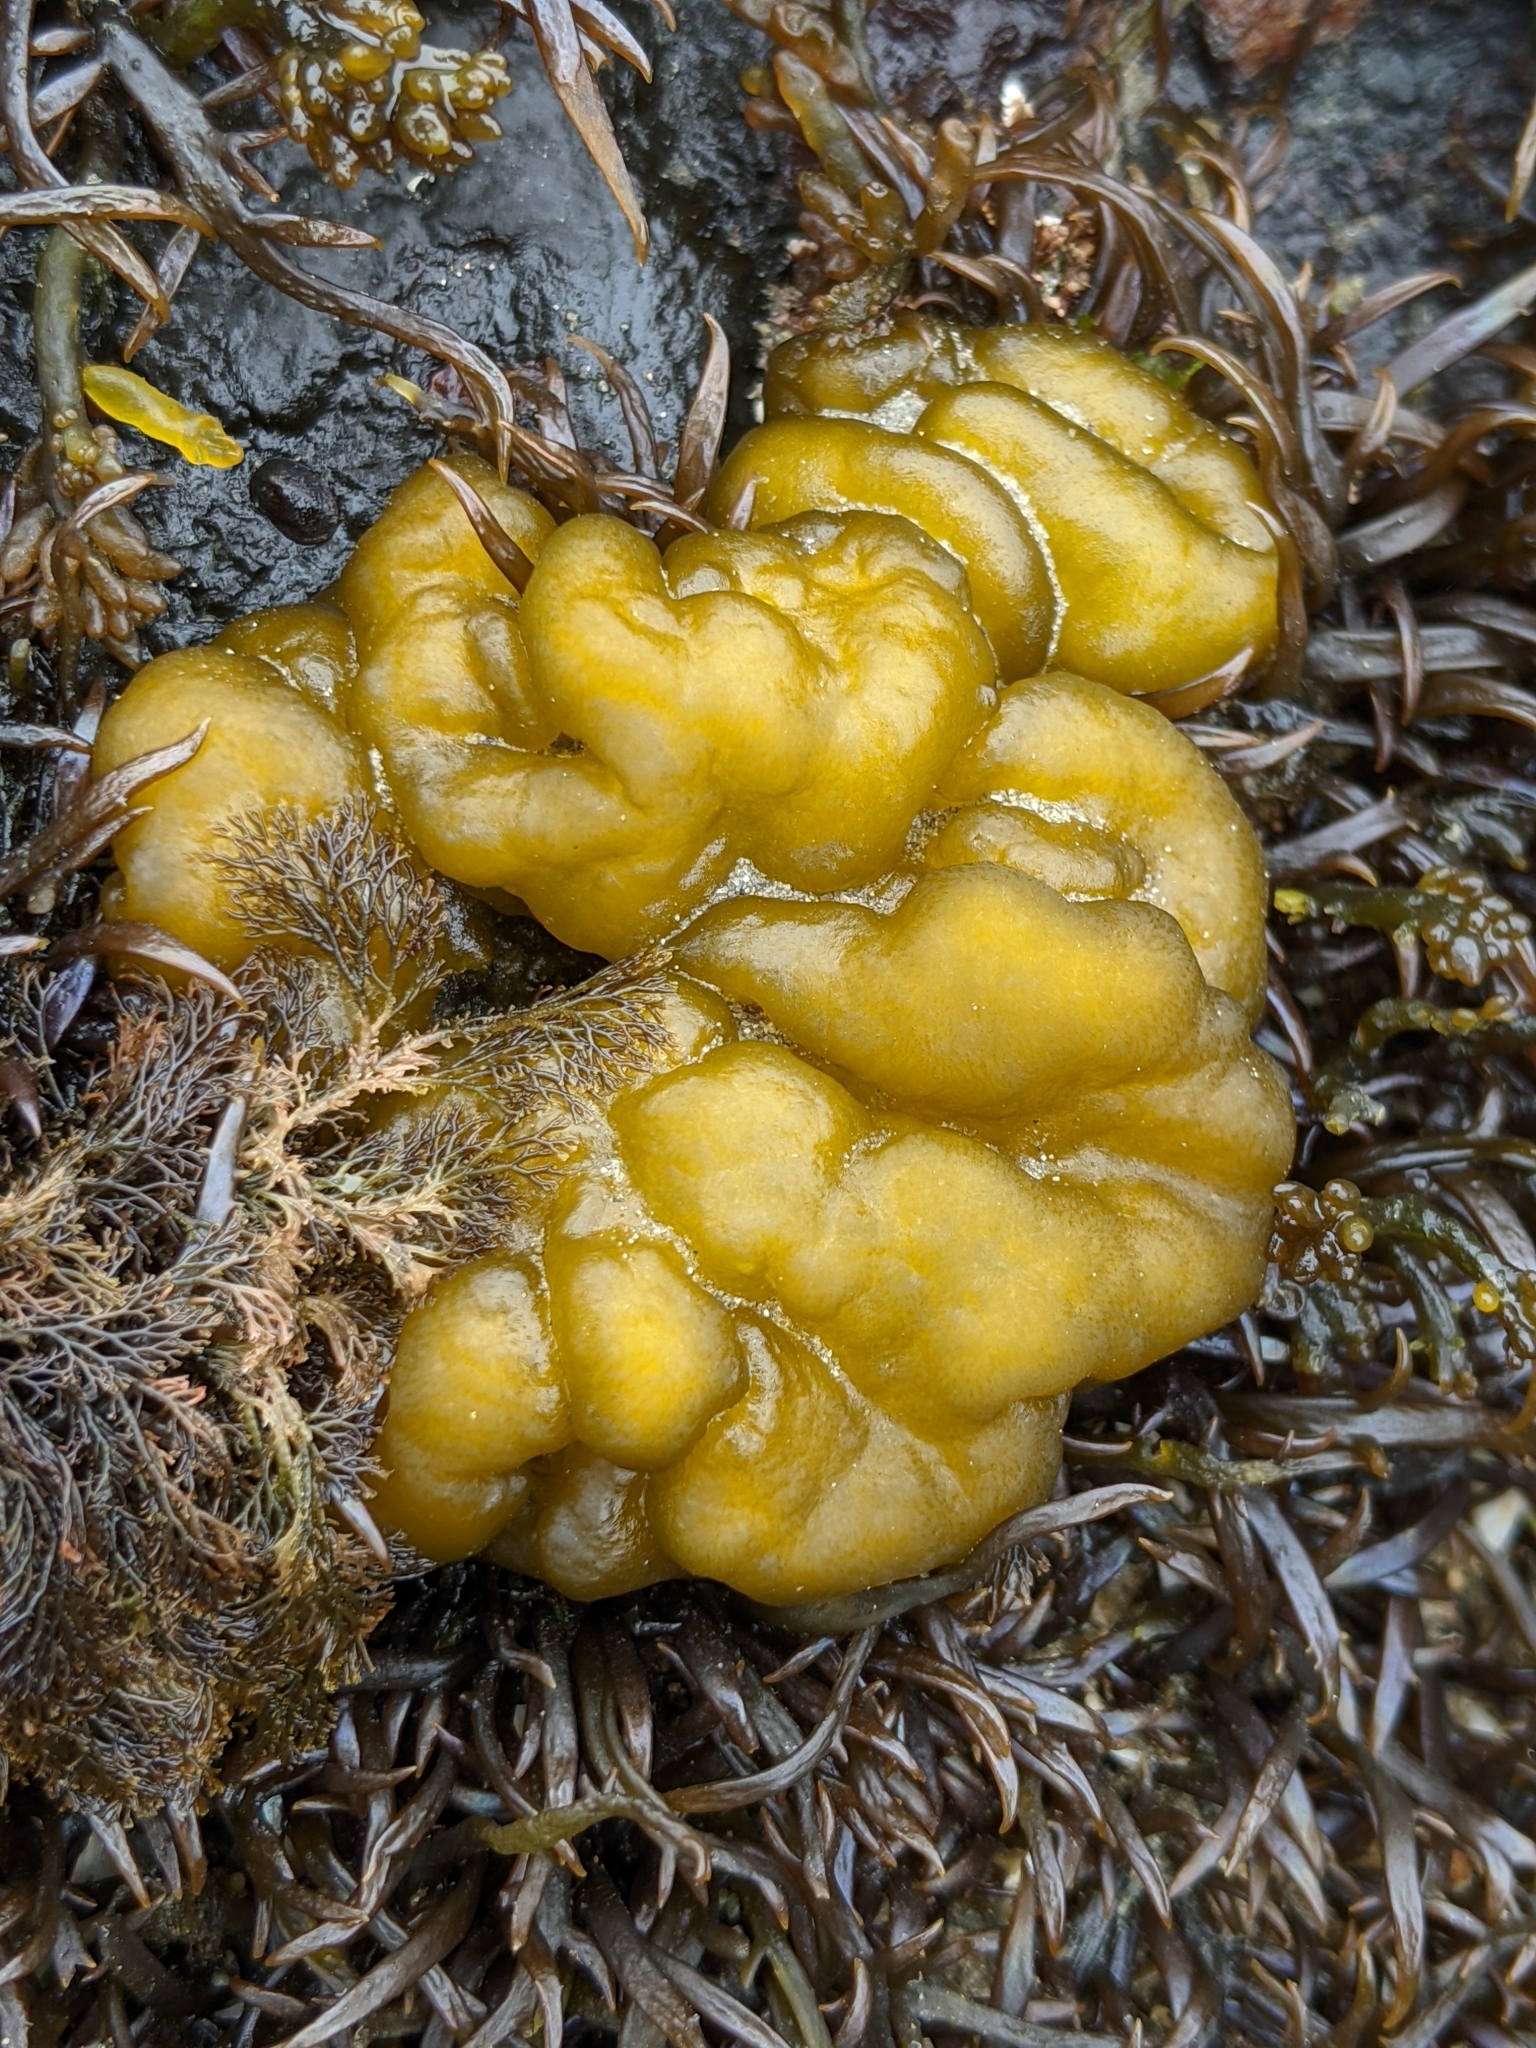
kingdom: Chromista
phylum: Ochrophyta
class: Phaeophyceae
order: Ectocarpales
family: Chordariaceae
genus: Leathesia
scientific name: Leathesia marina
